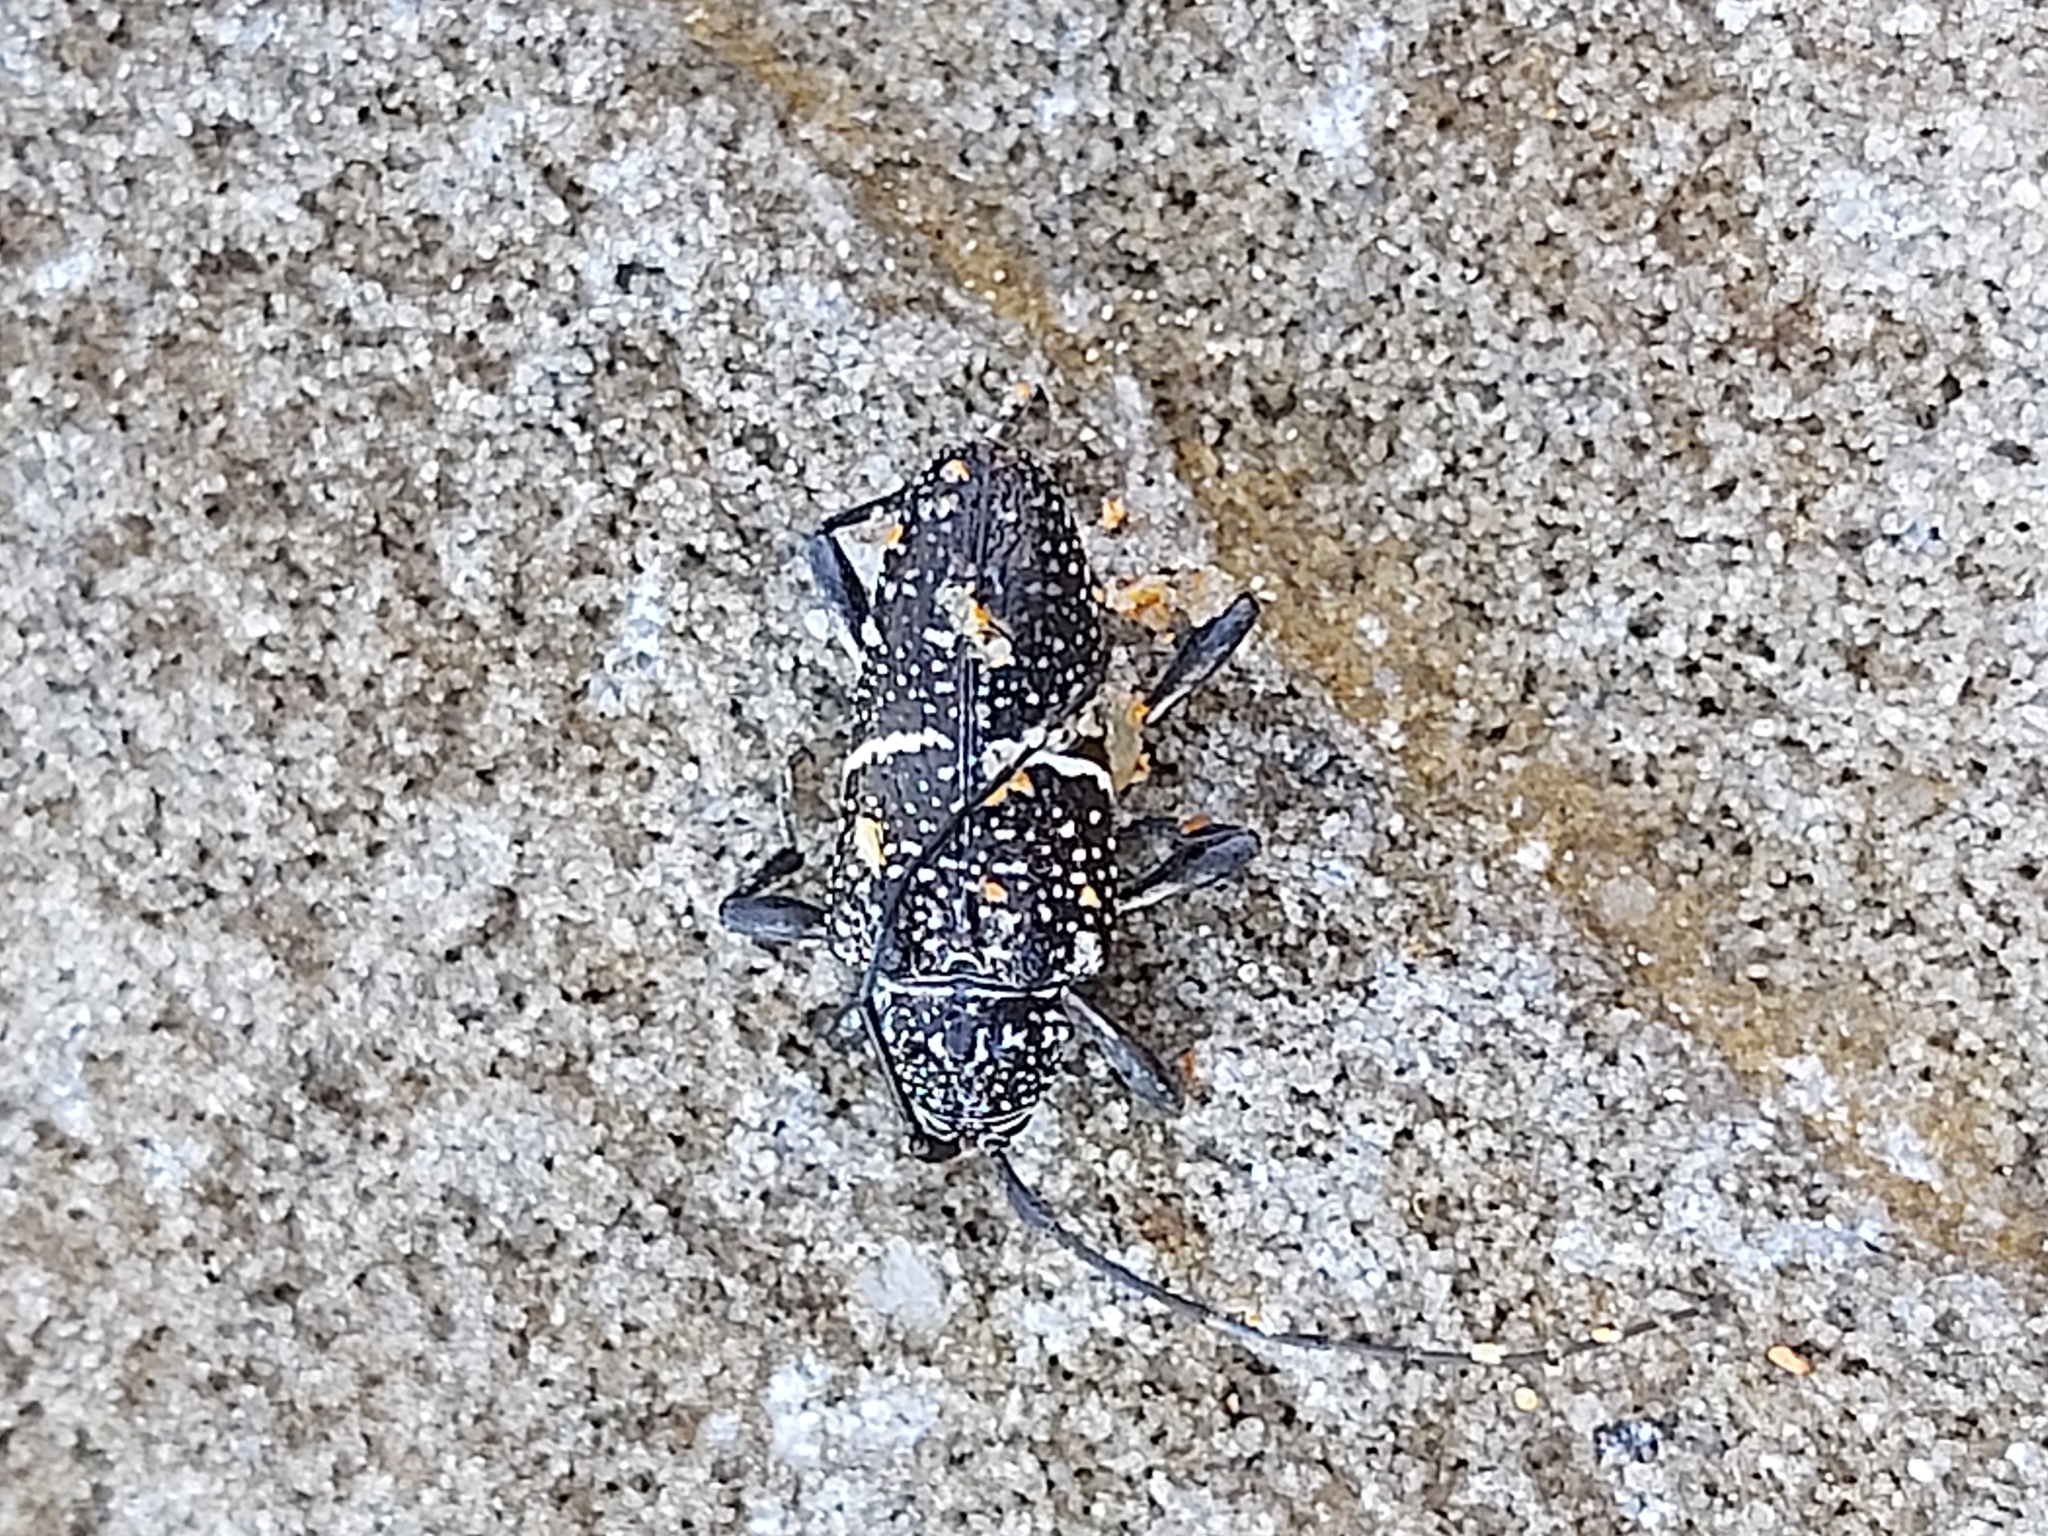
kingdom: Animalia
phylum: Arthropoda
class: Insecta
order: Coleoptera
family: Cerambycidae
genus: Zygocera
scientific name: Zygocera pruinosa
